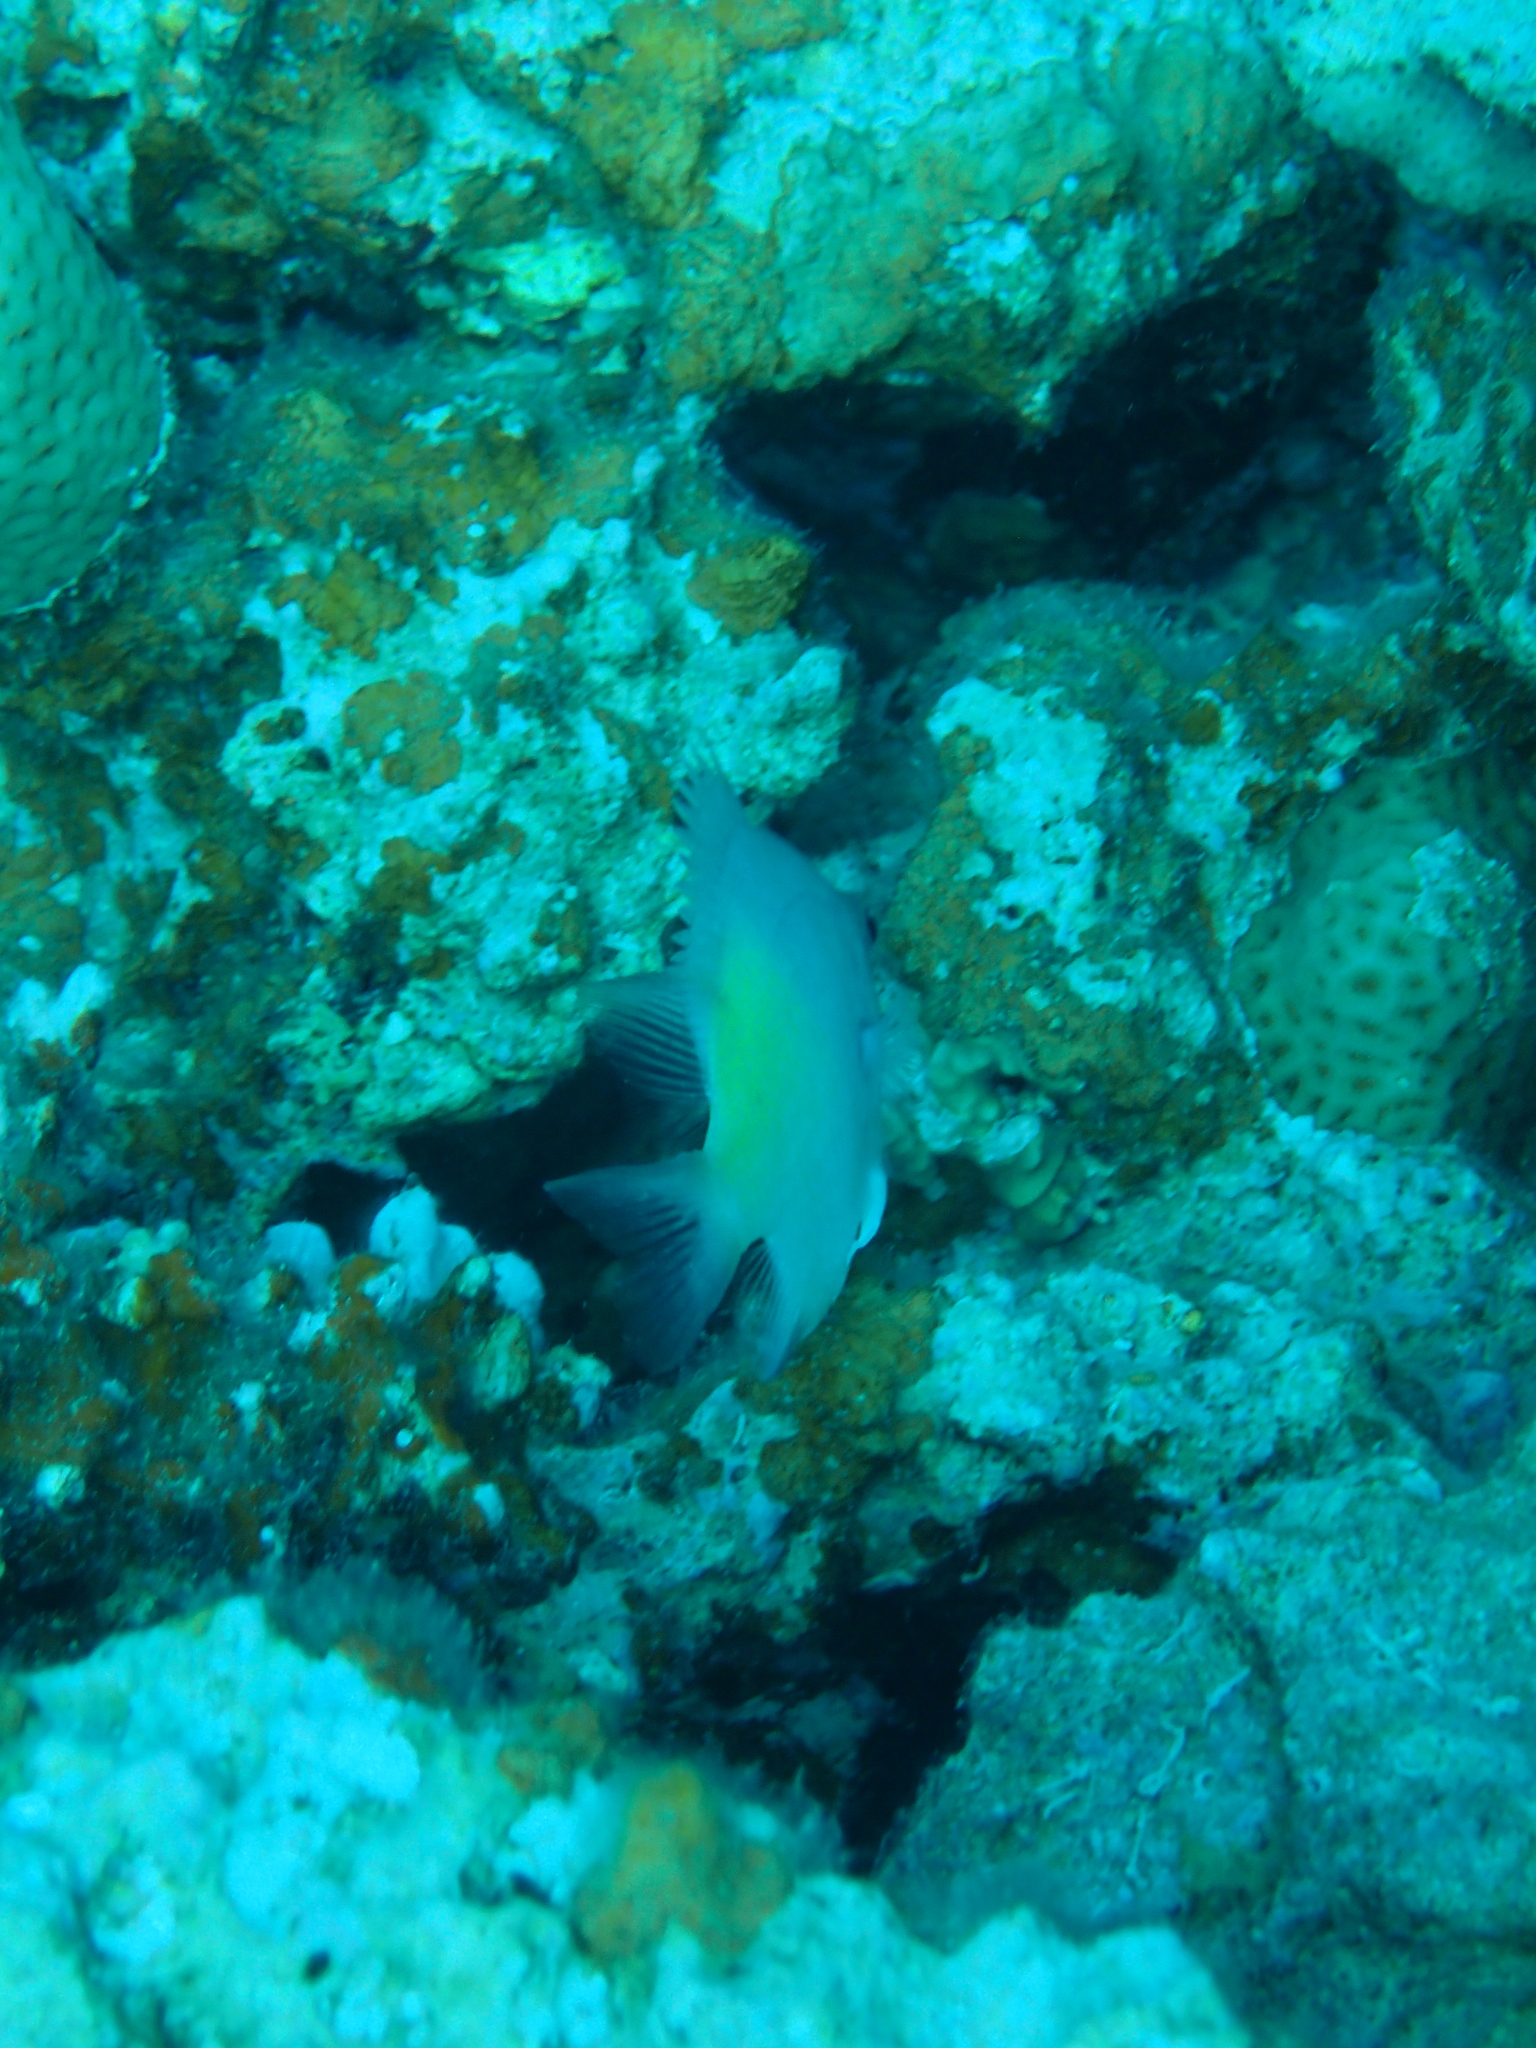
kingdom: Animalia
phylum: Chordata
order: Perciformes
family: Pomacentridae
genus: Amblyglyphidodon
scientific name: Amblyglyphidodon indicus
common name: Maldives damselfish
